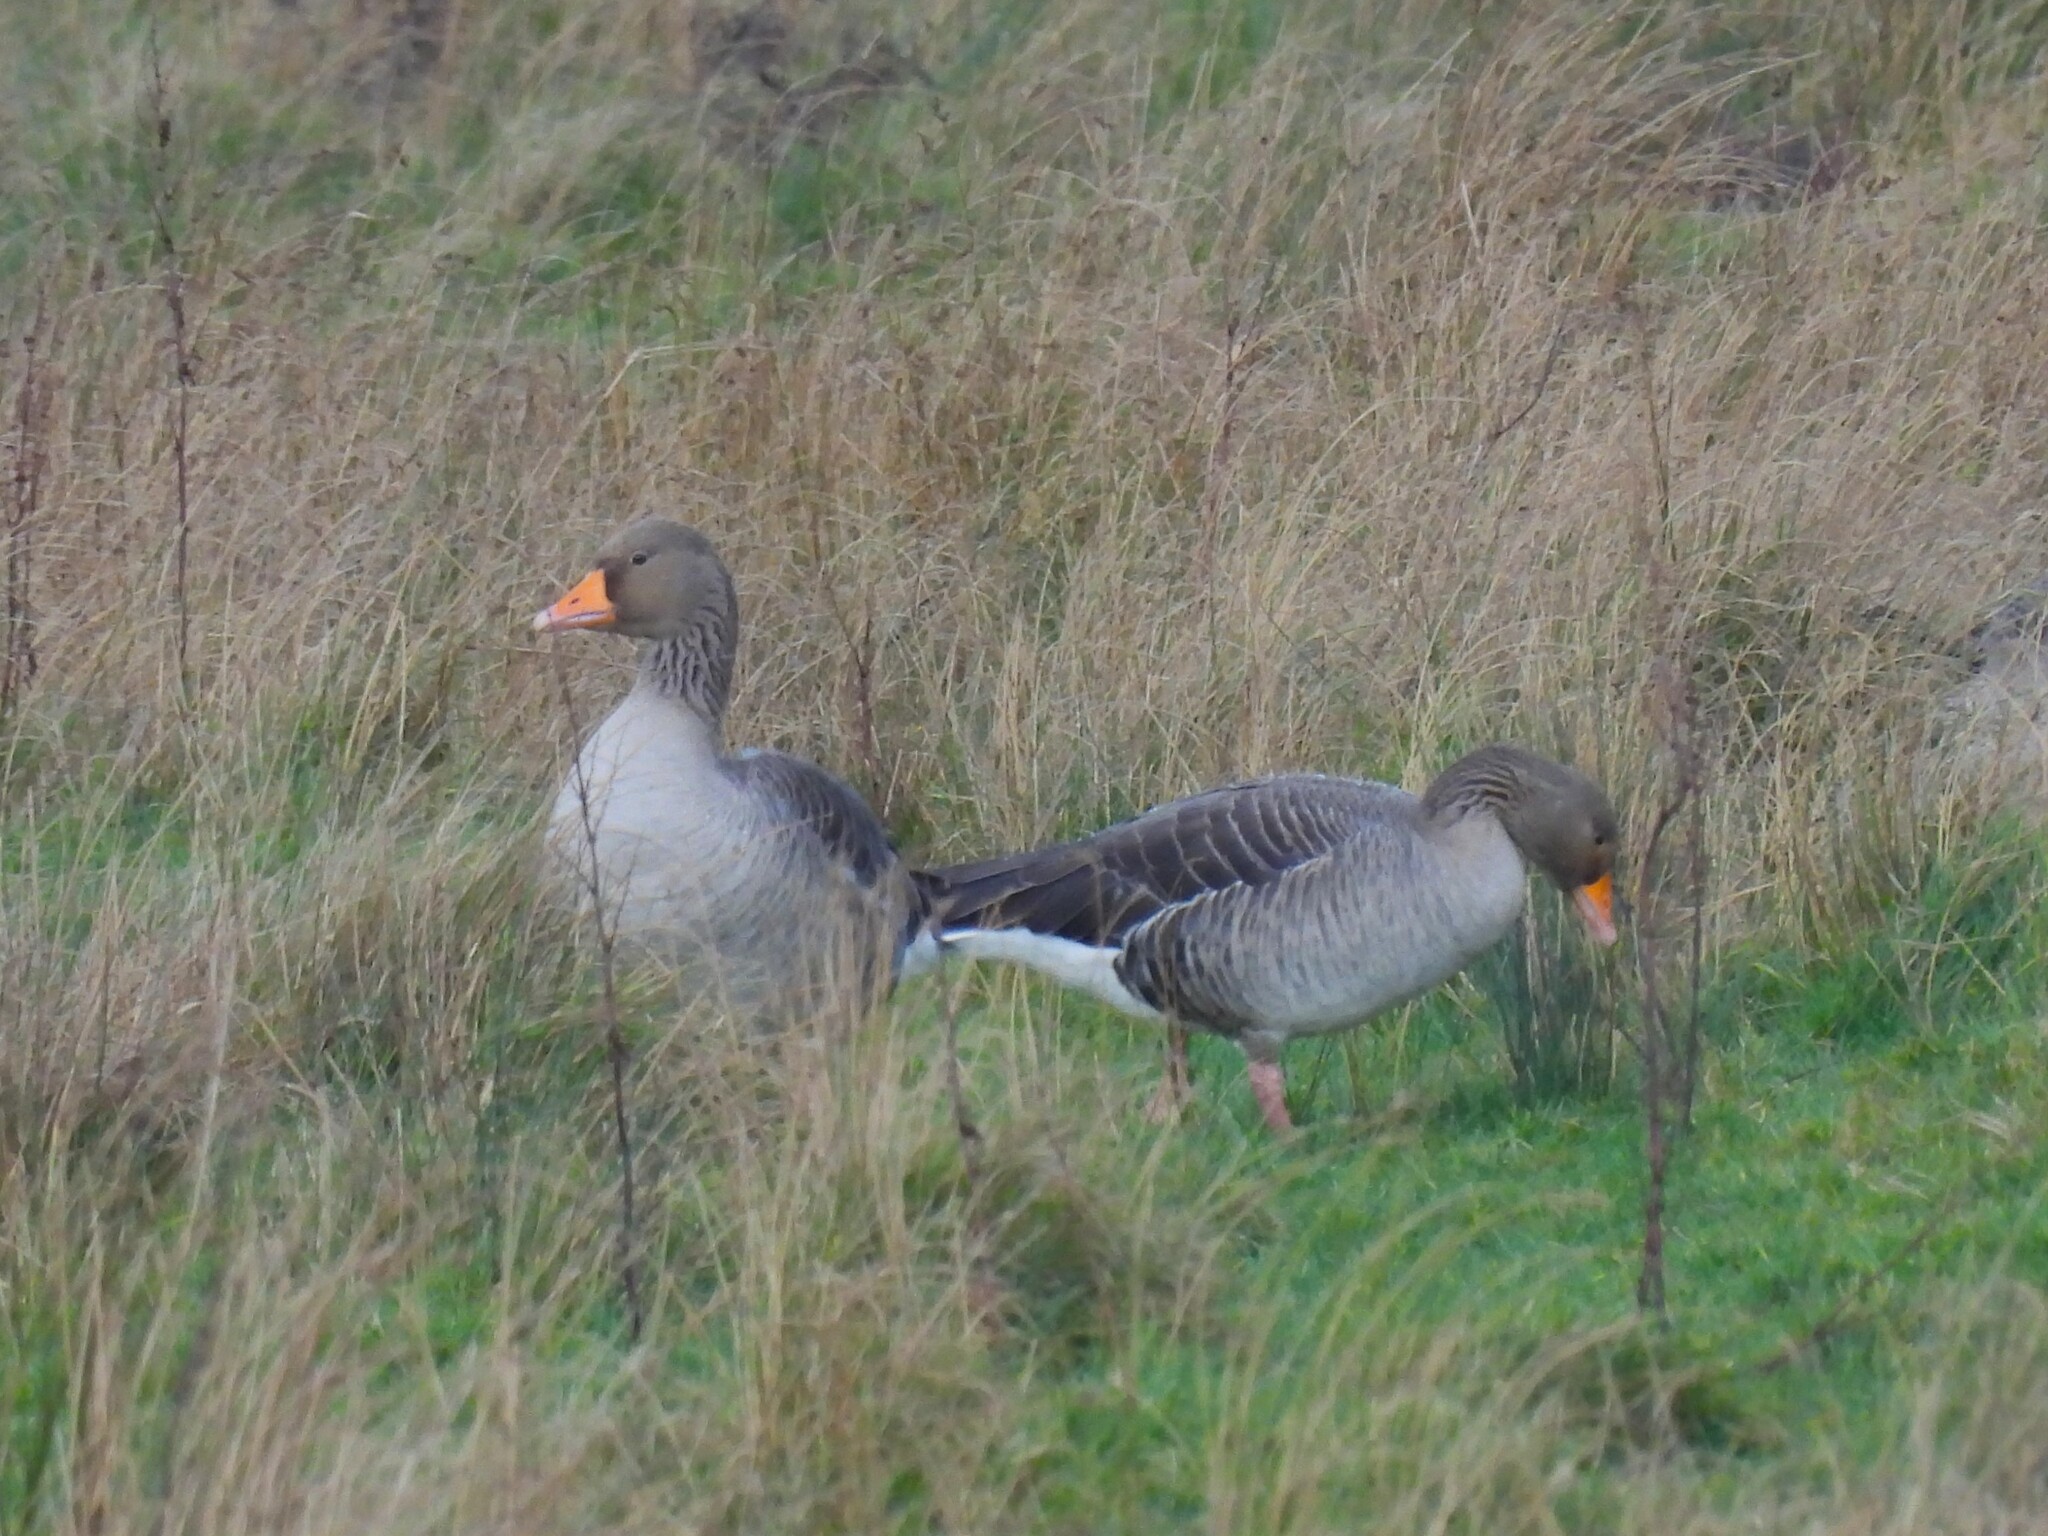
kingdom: Animalia
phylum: Chordata
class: Aves
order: Anseriformes
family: Anatidae
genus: Anser
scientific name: Anser anser
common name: Greylag goose
